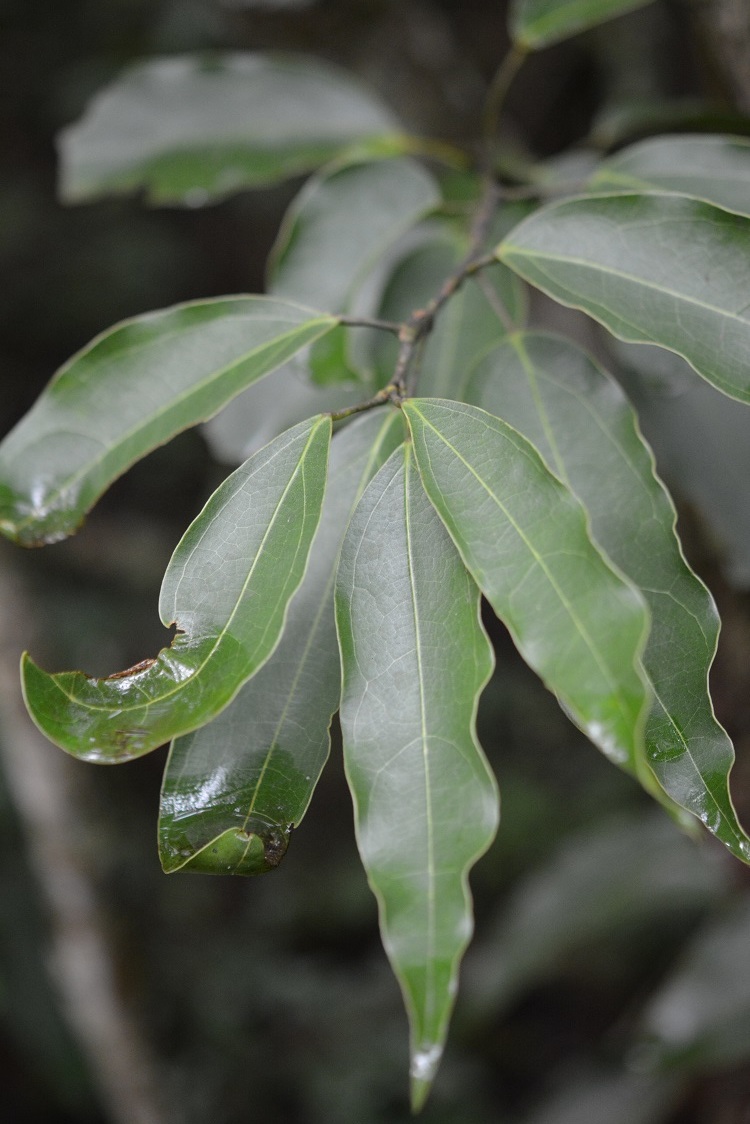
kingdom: Plantae
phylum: Tracheophyta
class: Magnoliopsida
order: Ranunculales
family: Menispermaceae
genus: Hyperbaena
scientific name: Hyperbaena mexicana
